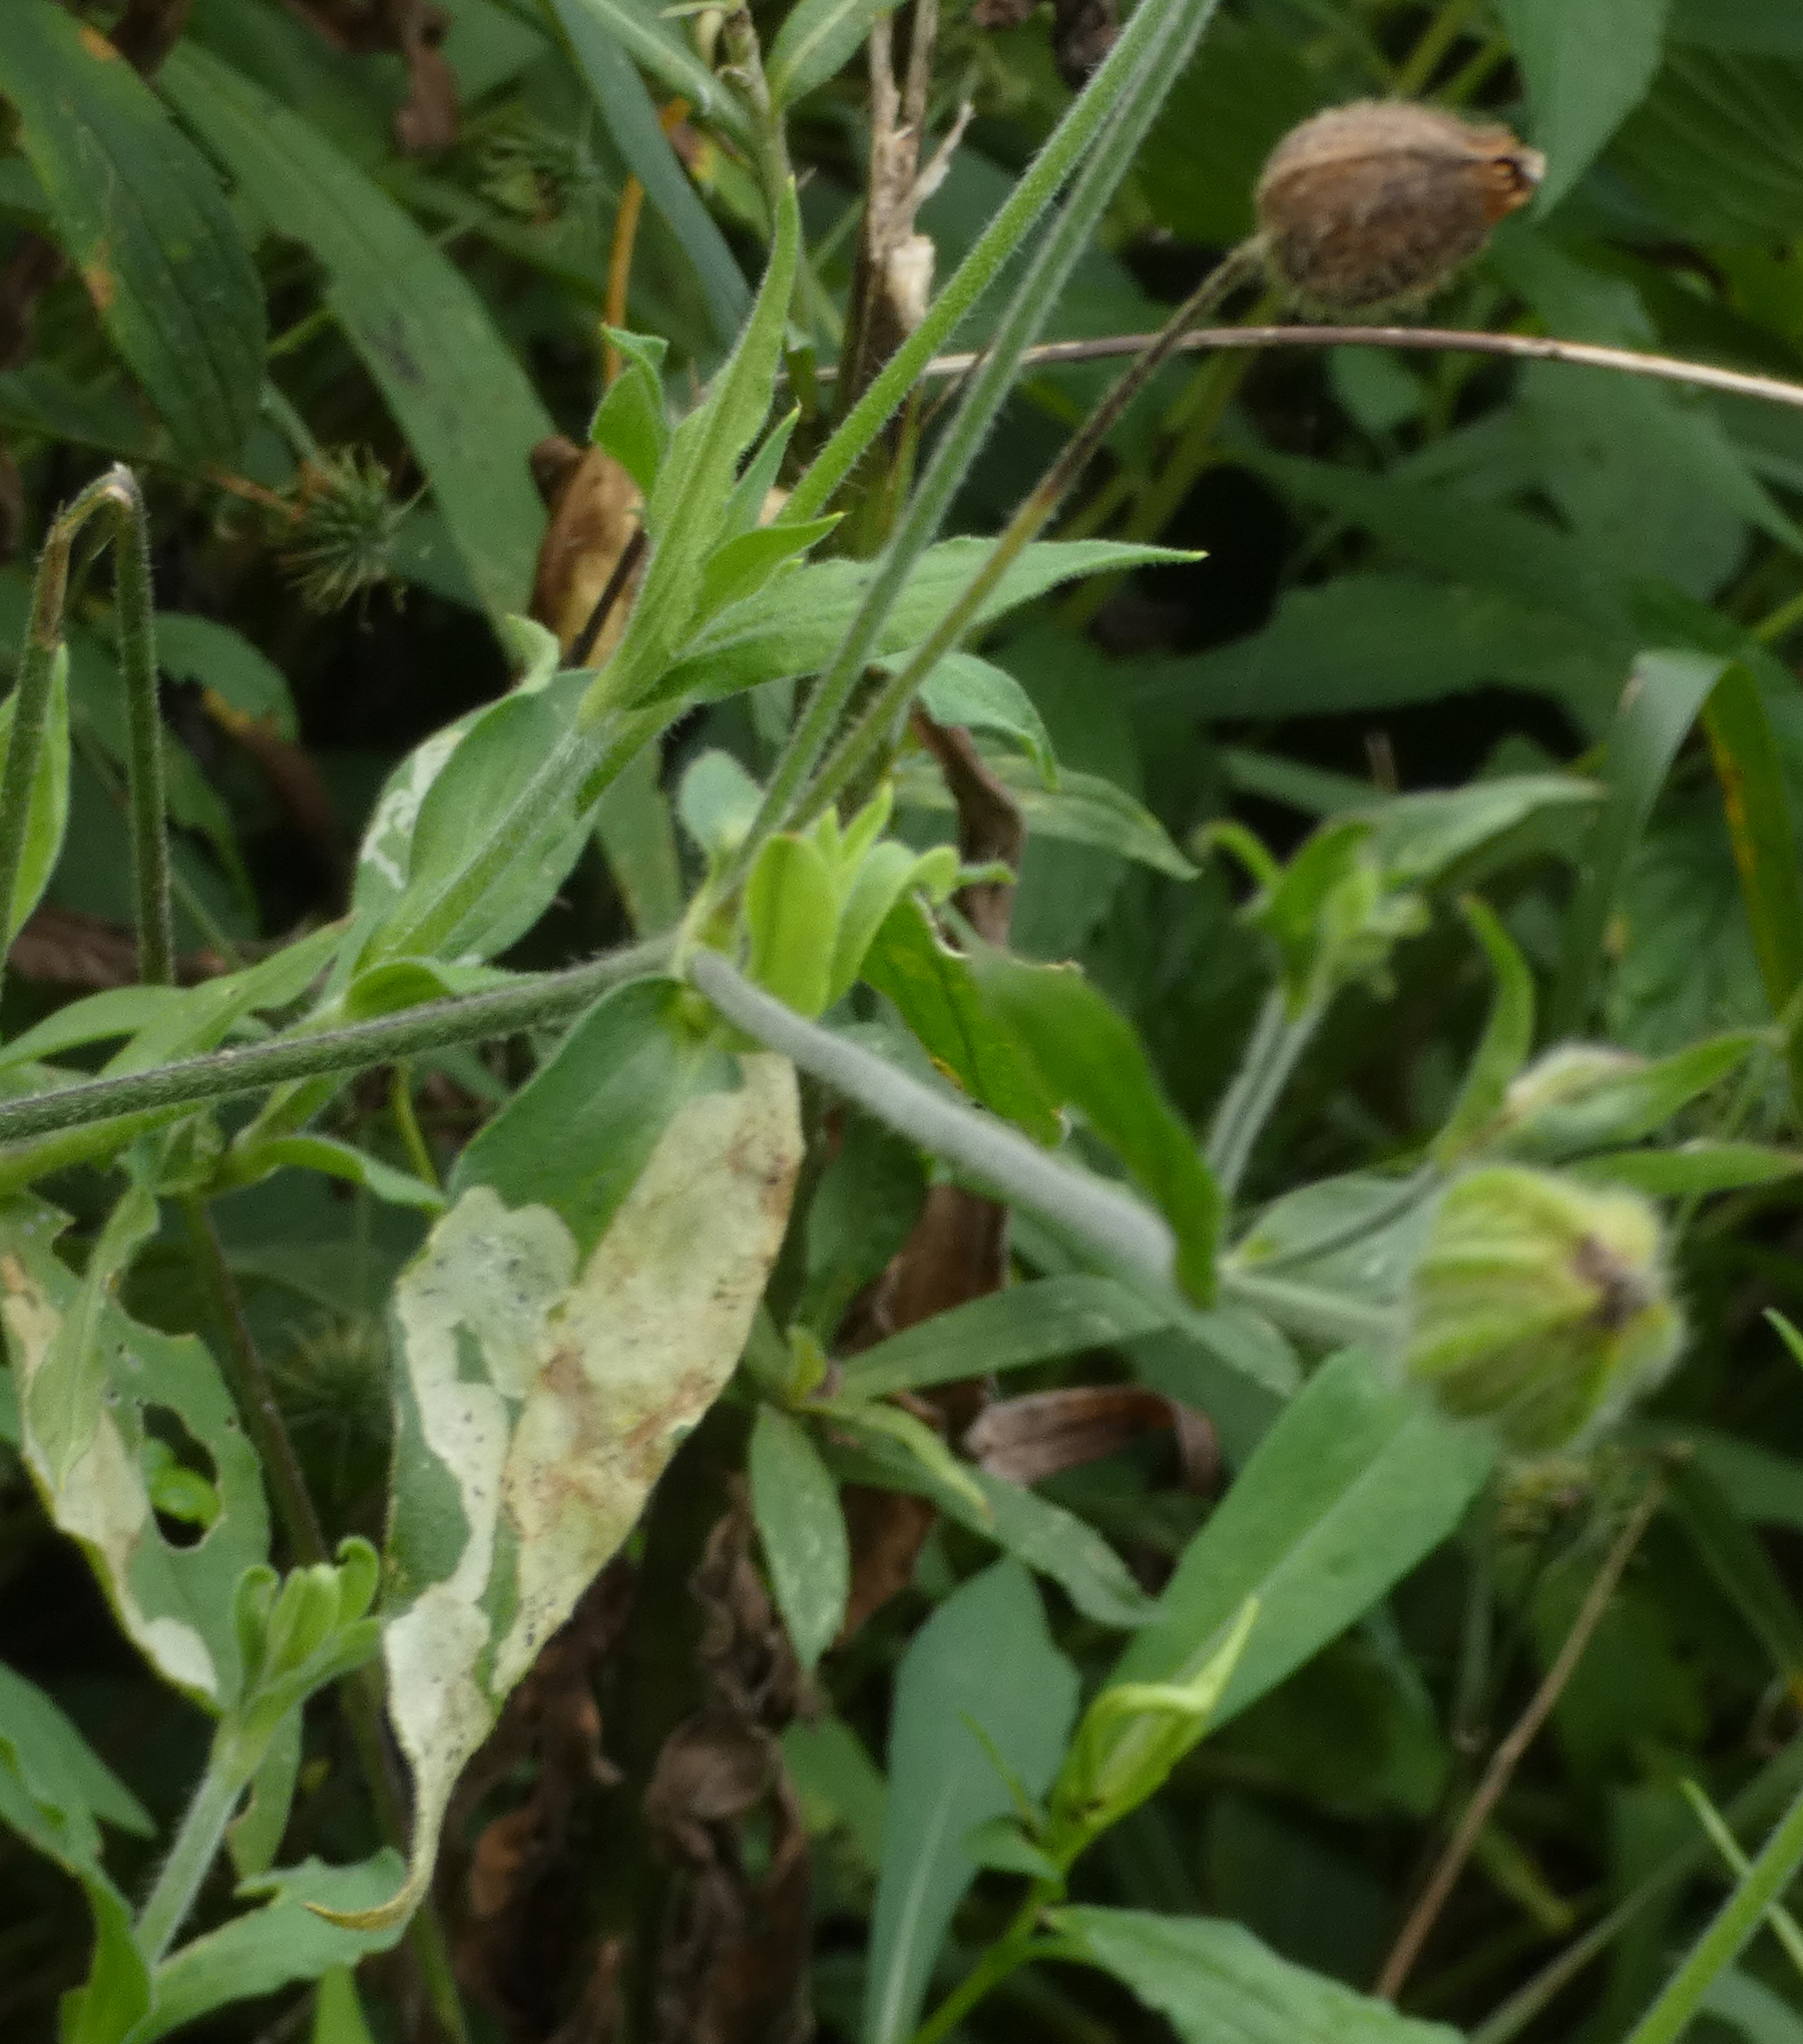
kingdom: Plantae
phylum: Tracheophyta
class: Magnoliopsida
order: Caryophyllales
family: Caryophyllaceae
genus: Silene
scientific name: Silene latifolia
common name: White campion
